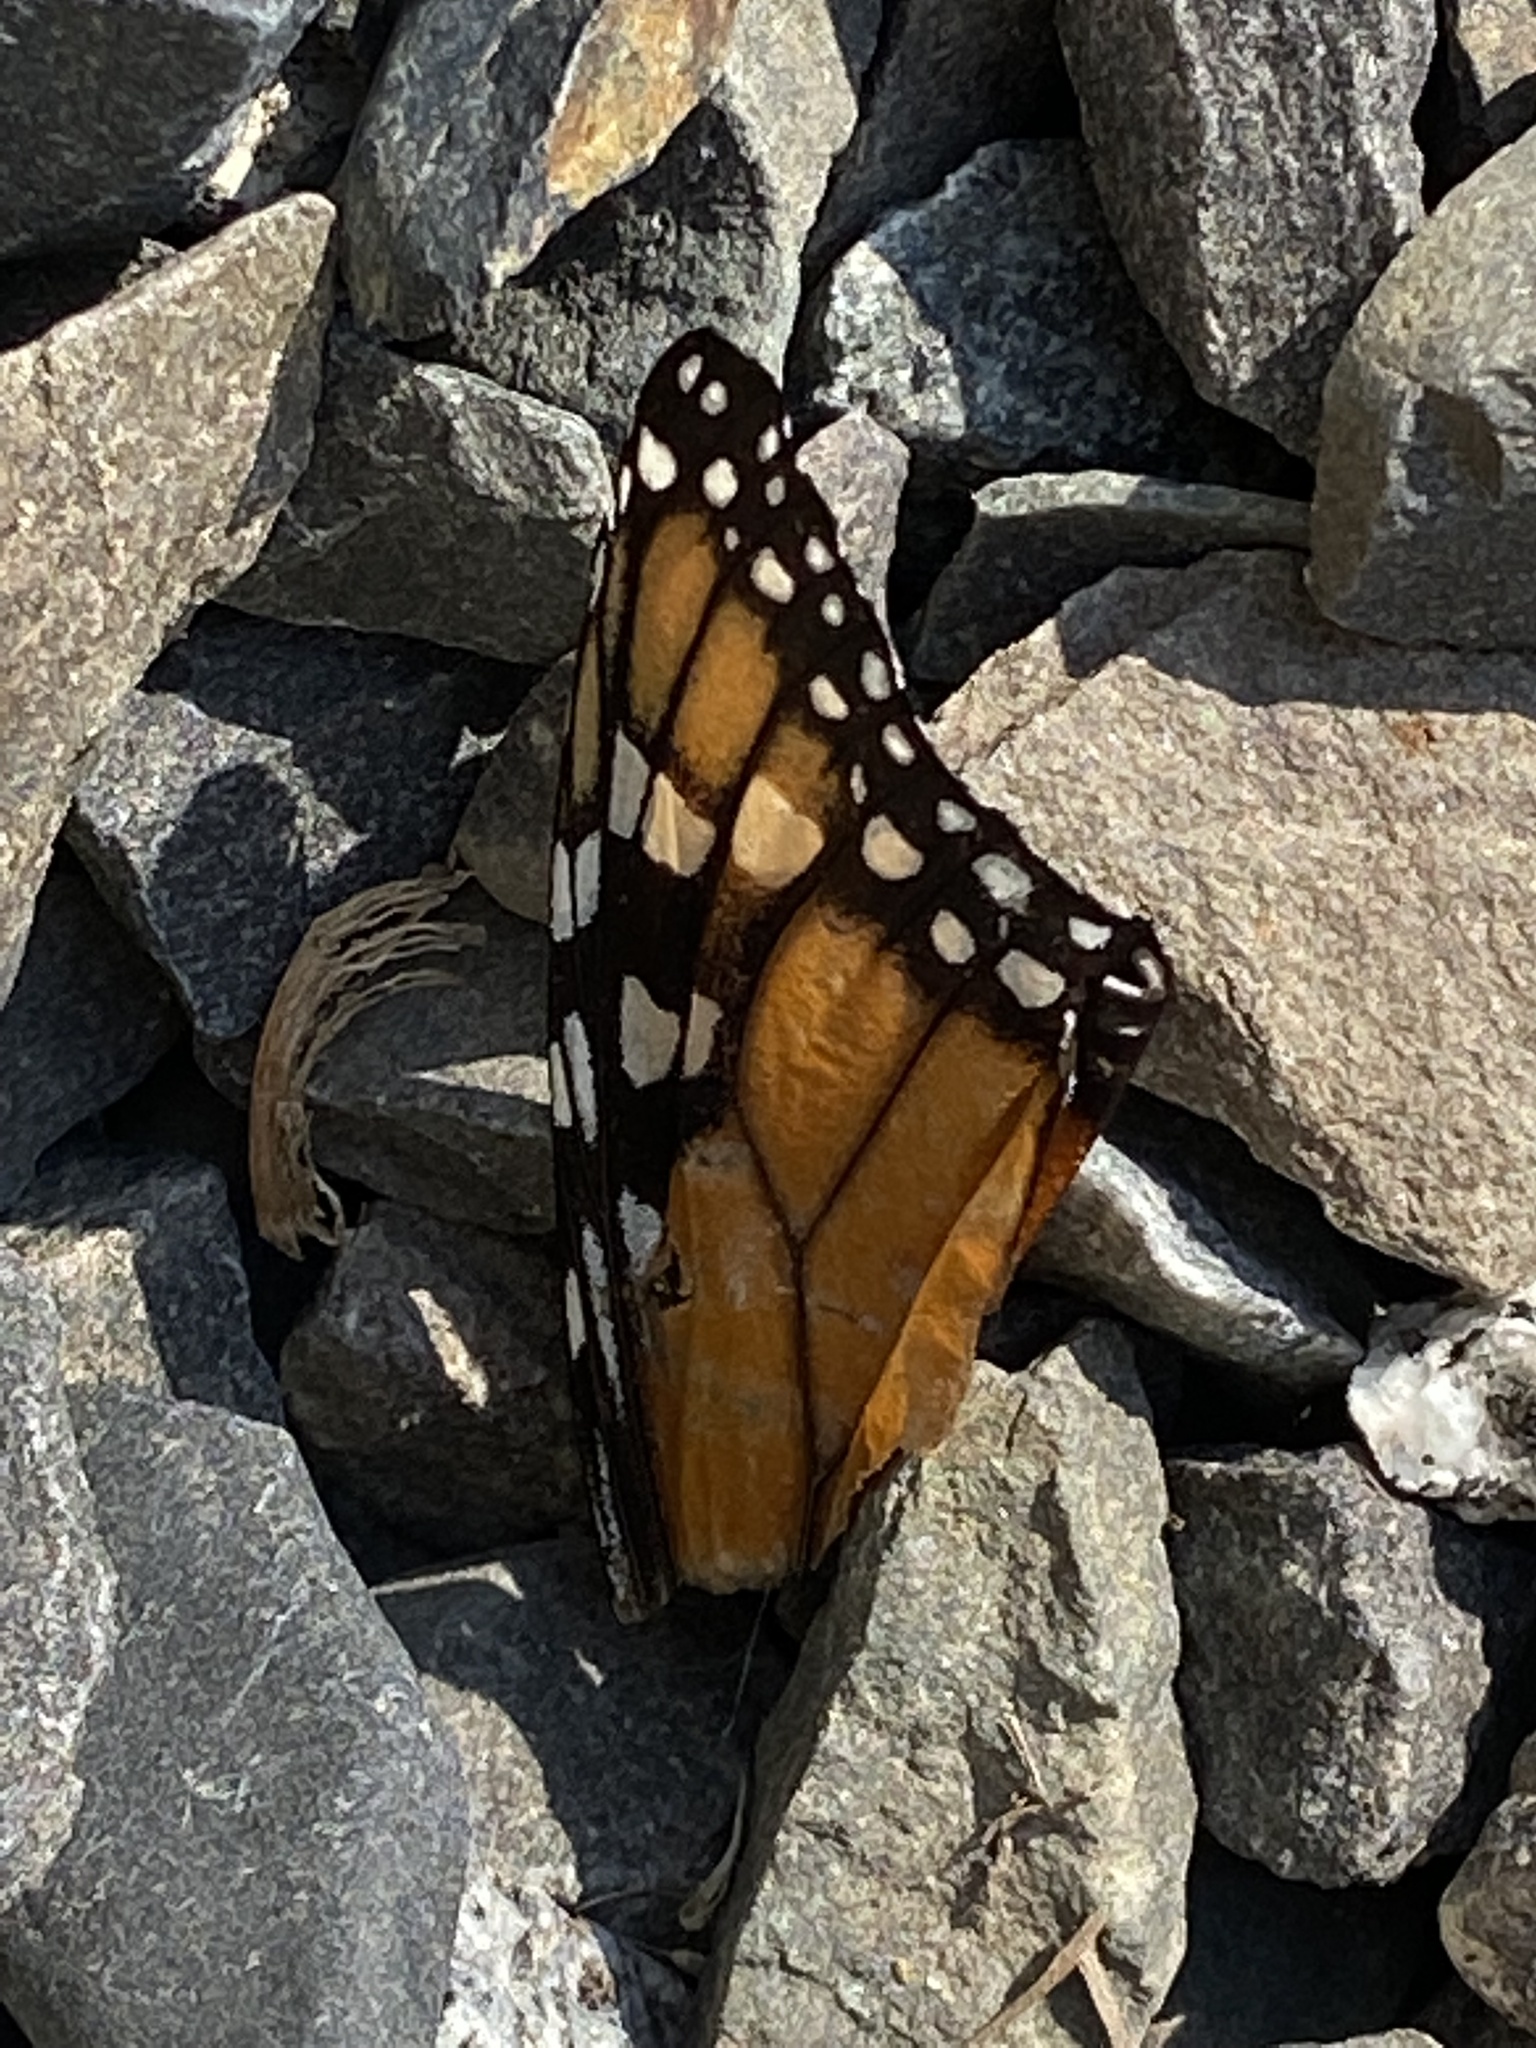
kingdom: Animalia
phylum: Arthropoda
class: Insecta
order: Lepidoptera
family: Nymphalidae
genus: Danaus
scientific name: Danaus plexippus
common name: Monarch
